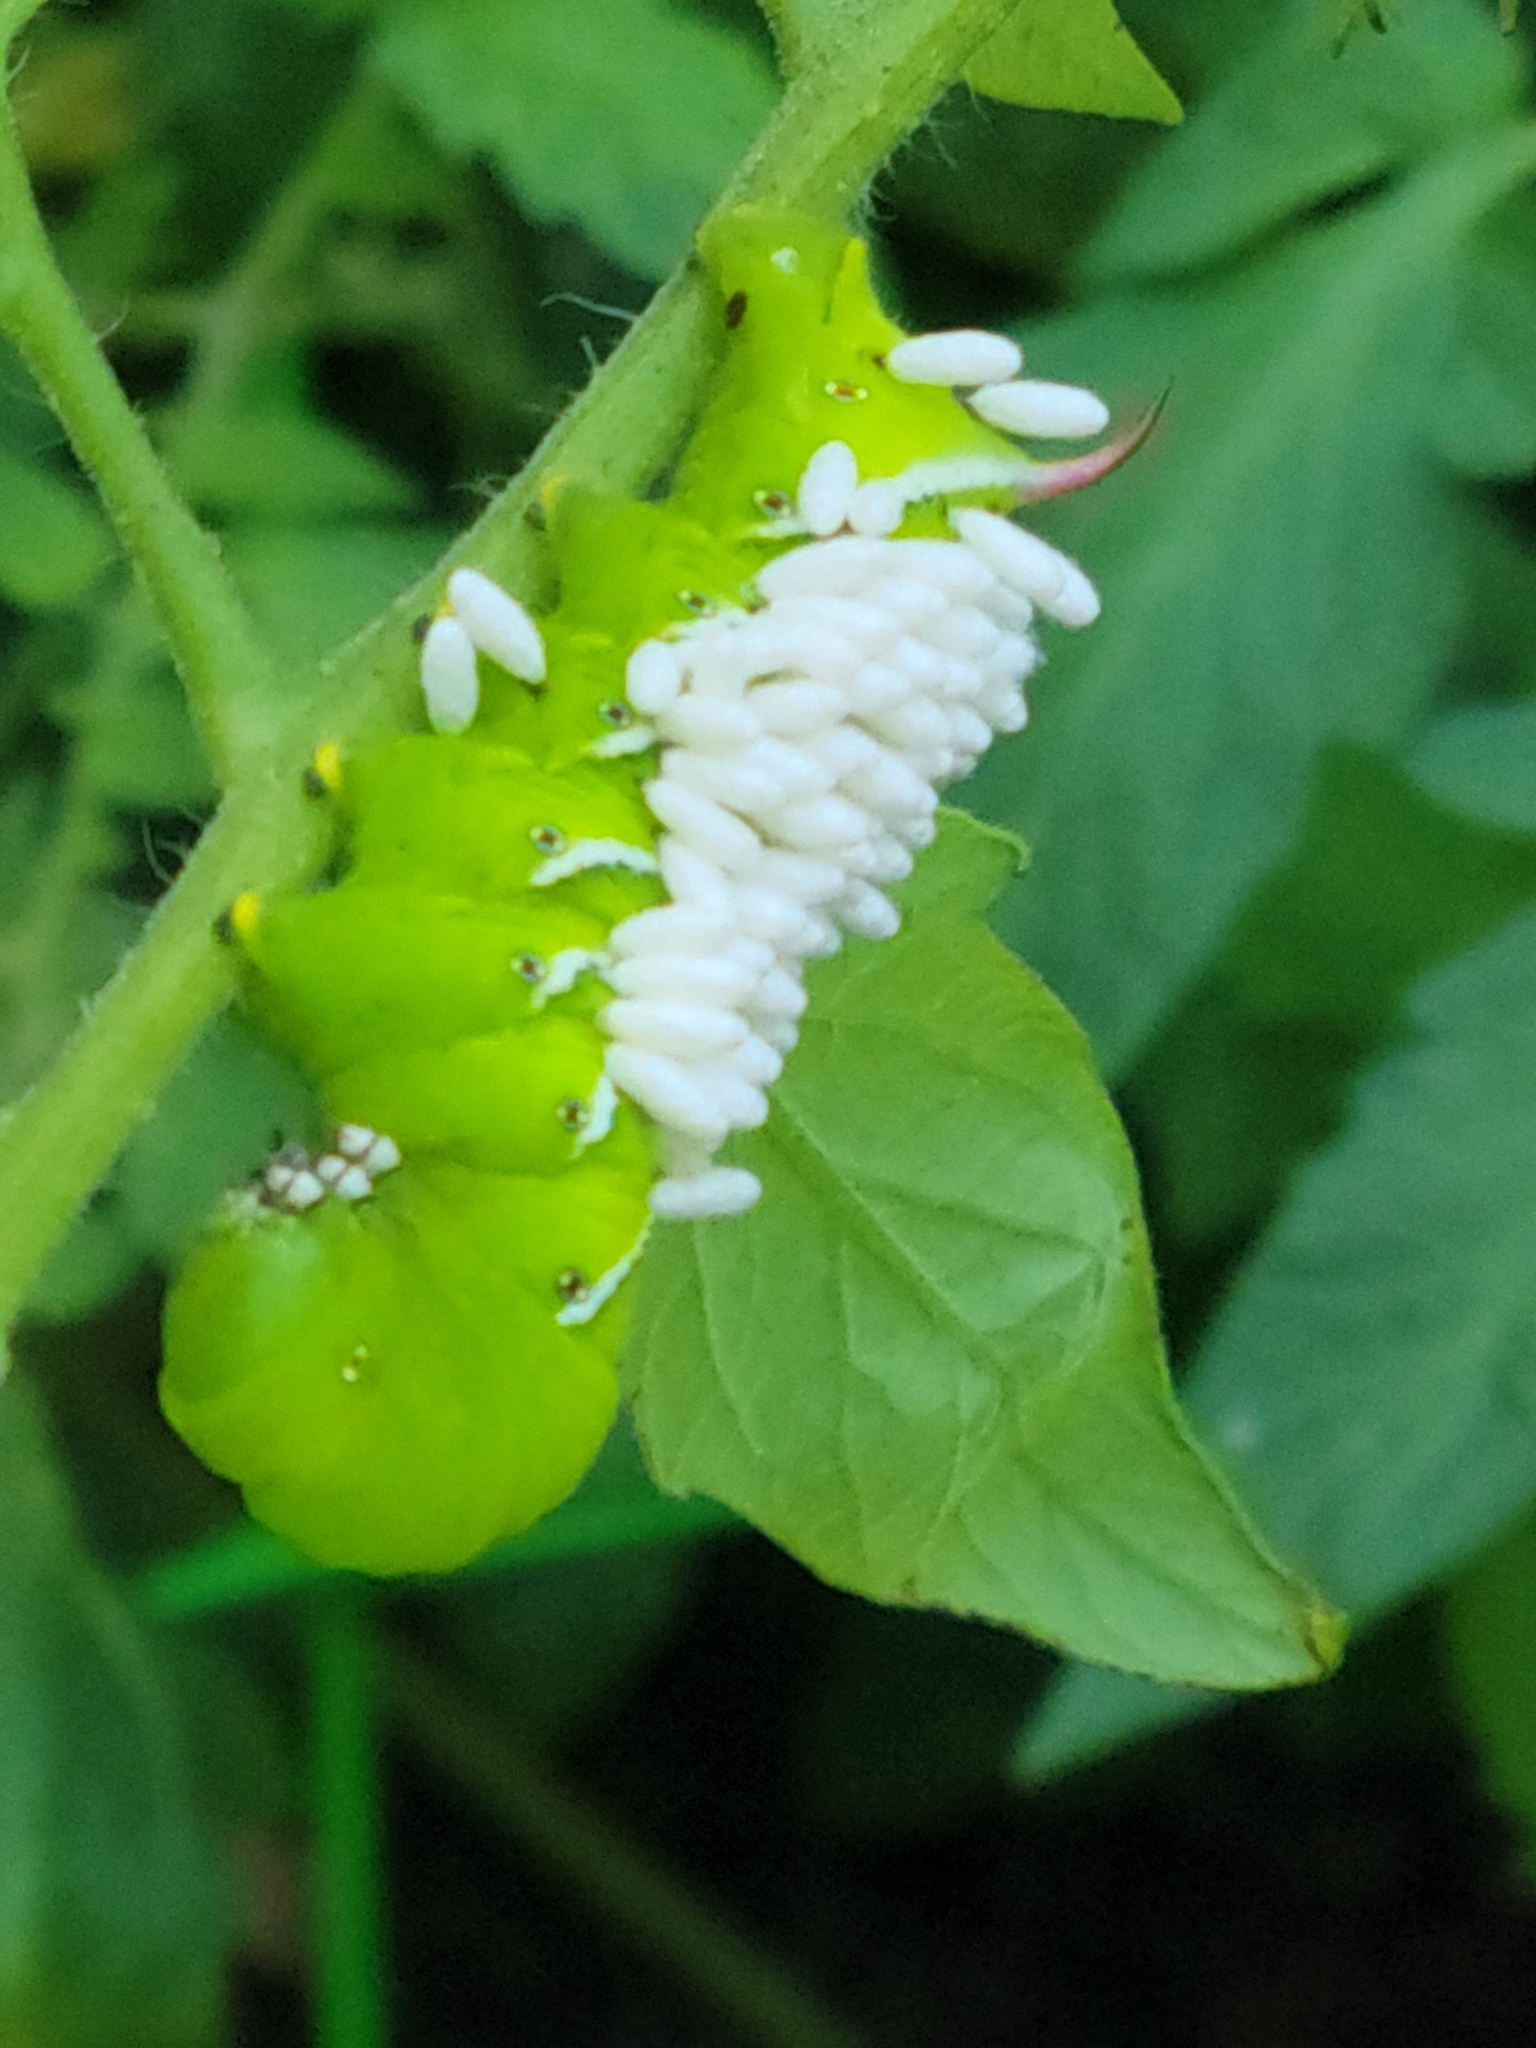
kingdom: Animalia
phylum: Arthropoda
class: Insecta
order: Lepidoptera
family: Sphingidae
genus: Manduca
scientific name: Manduca sexta
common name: Carolina sphinx
